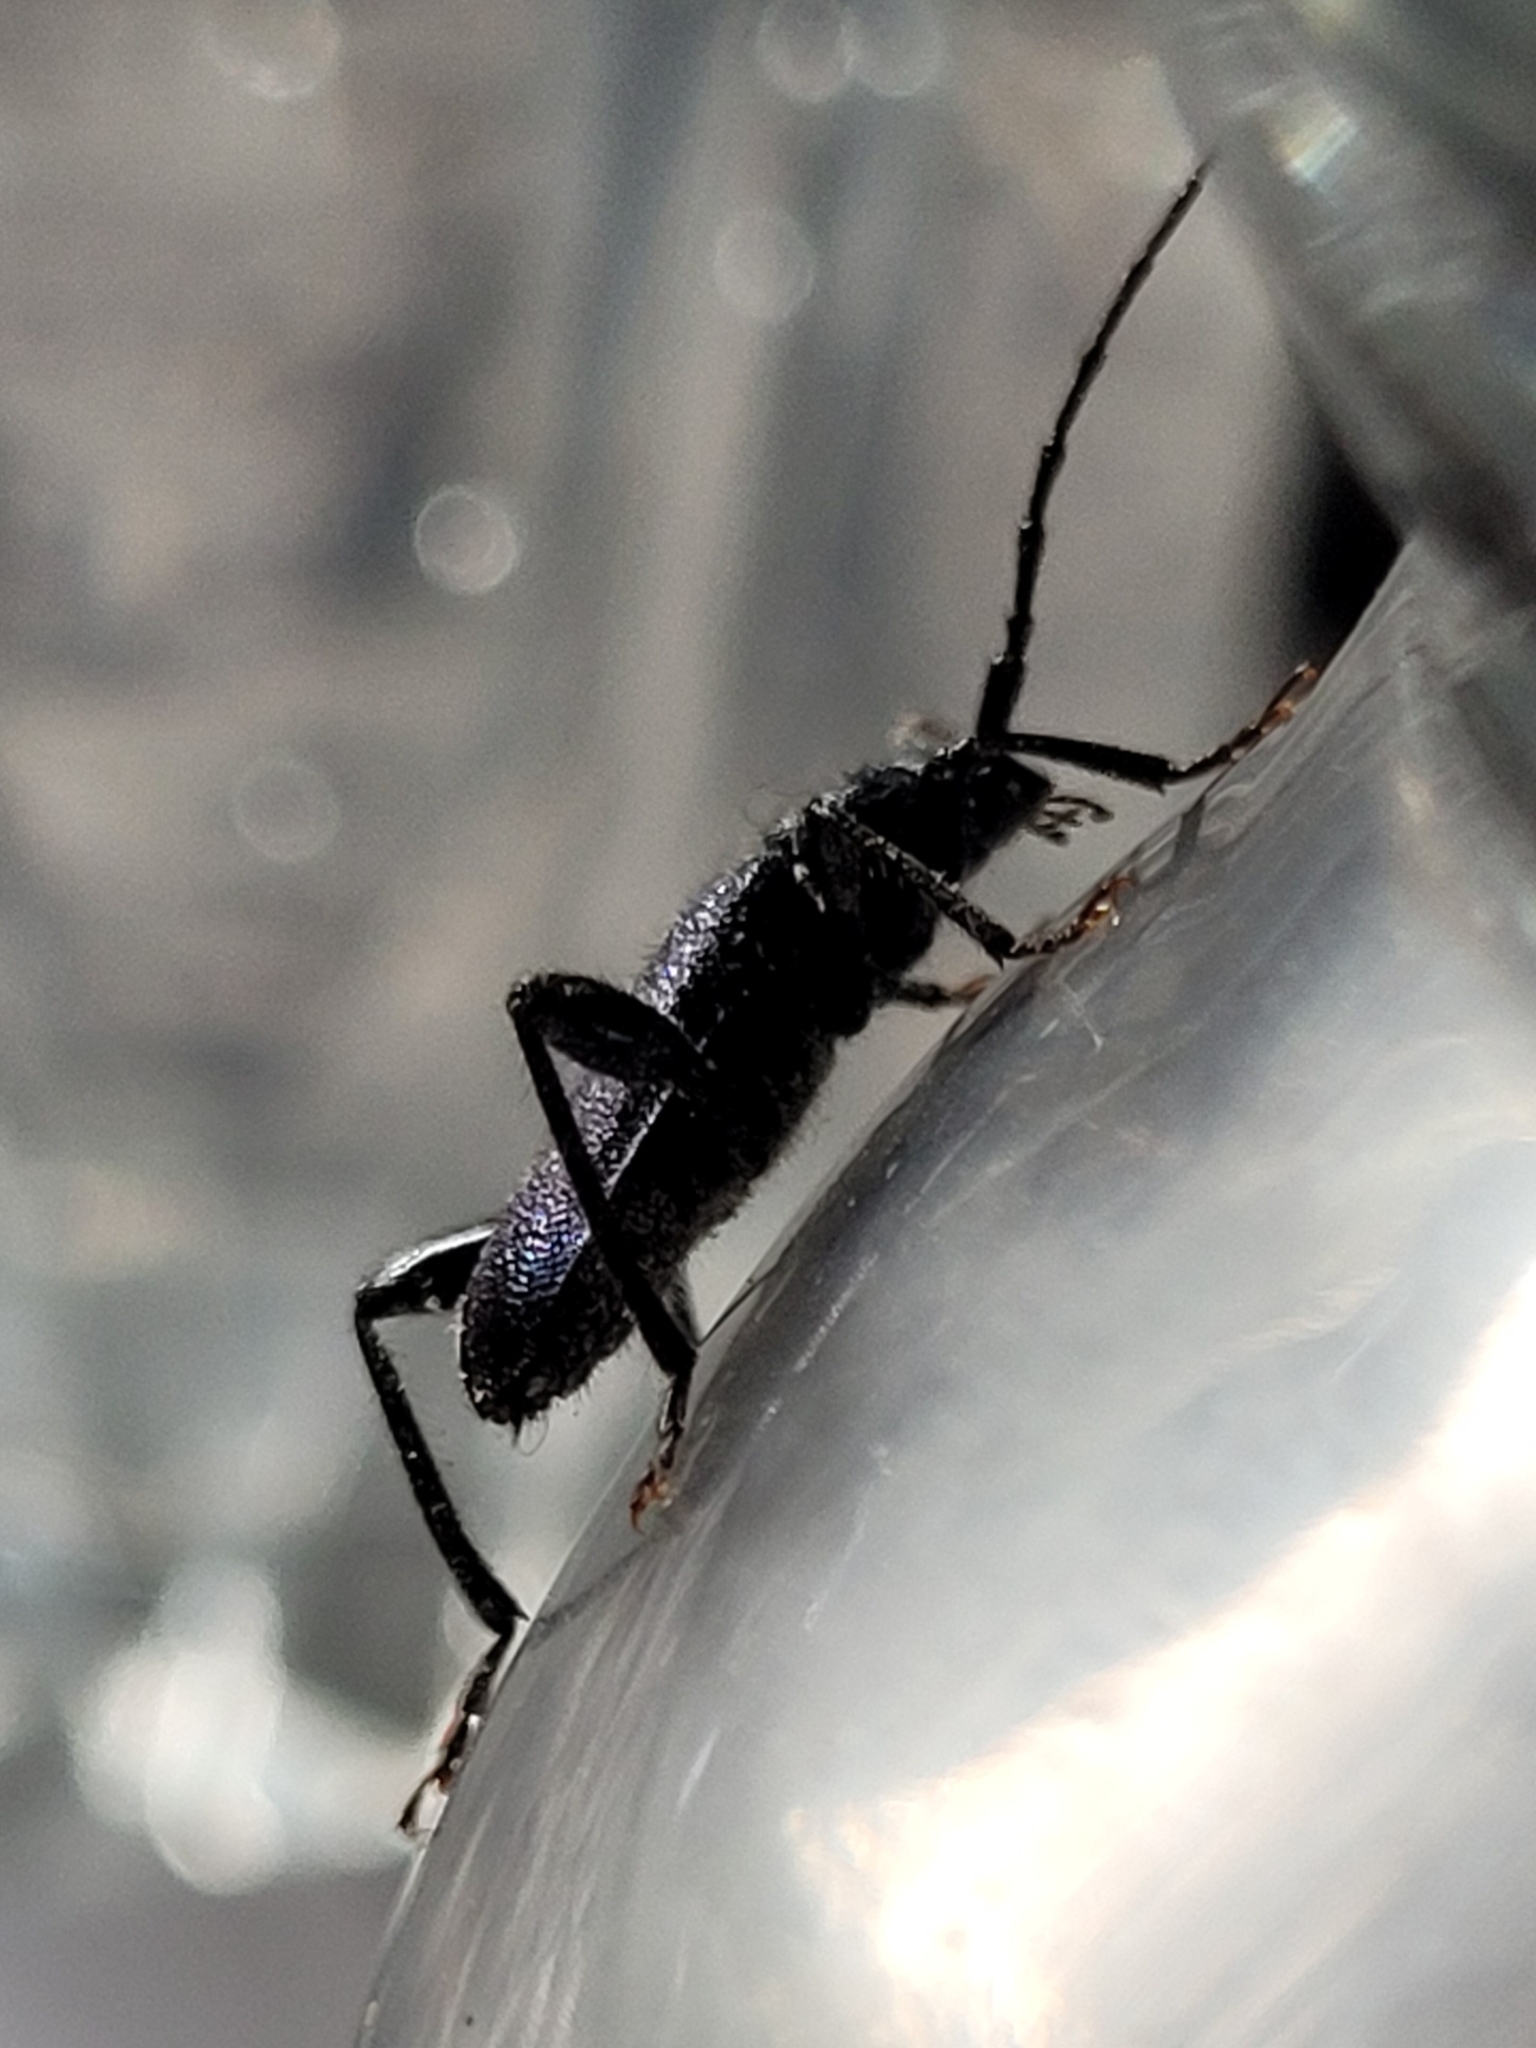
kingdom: Animalia
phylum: Arthropoda
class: Insecta
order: Coleoptera
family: Cerambycidae
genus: Callidium
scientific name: Callidium violaceum
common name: Violet tanbark beetle
